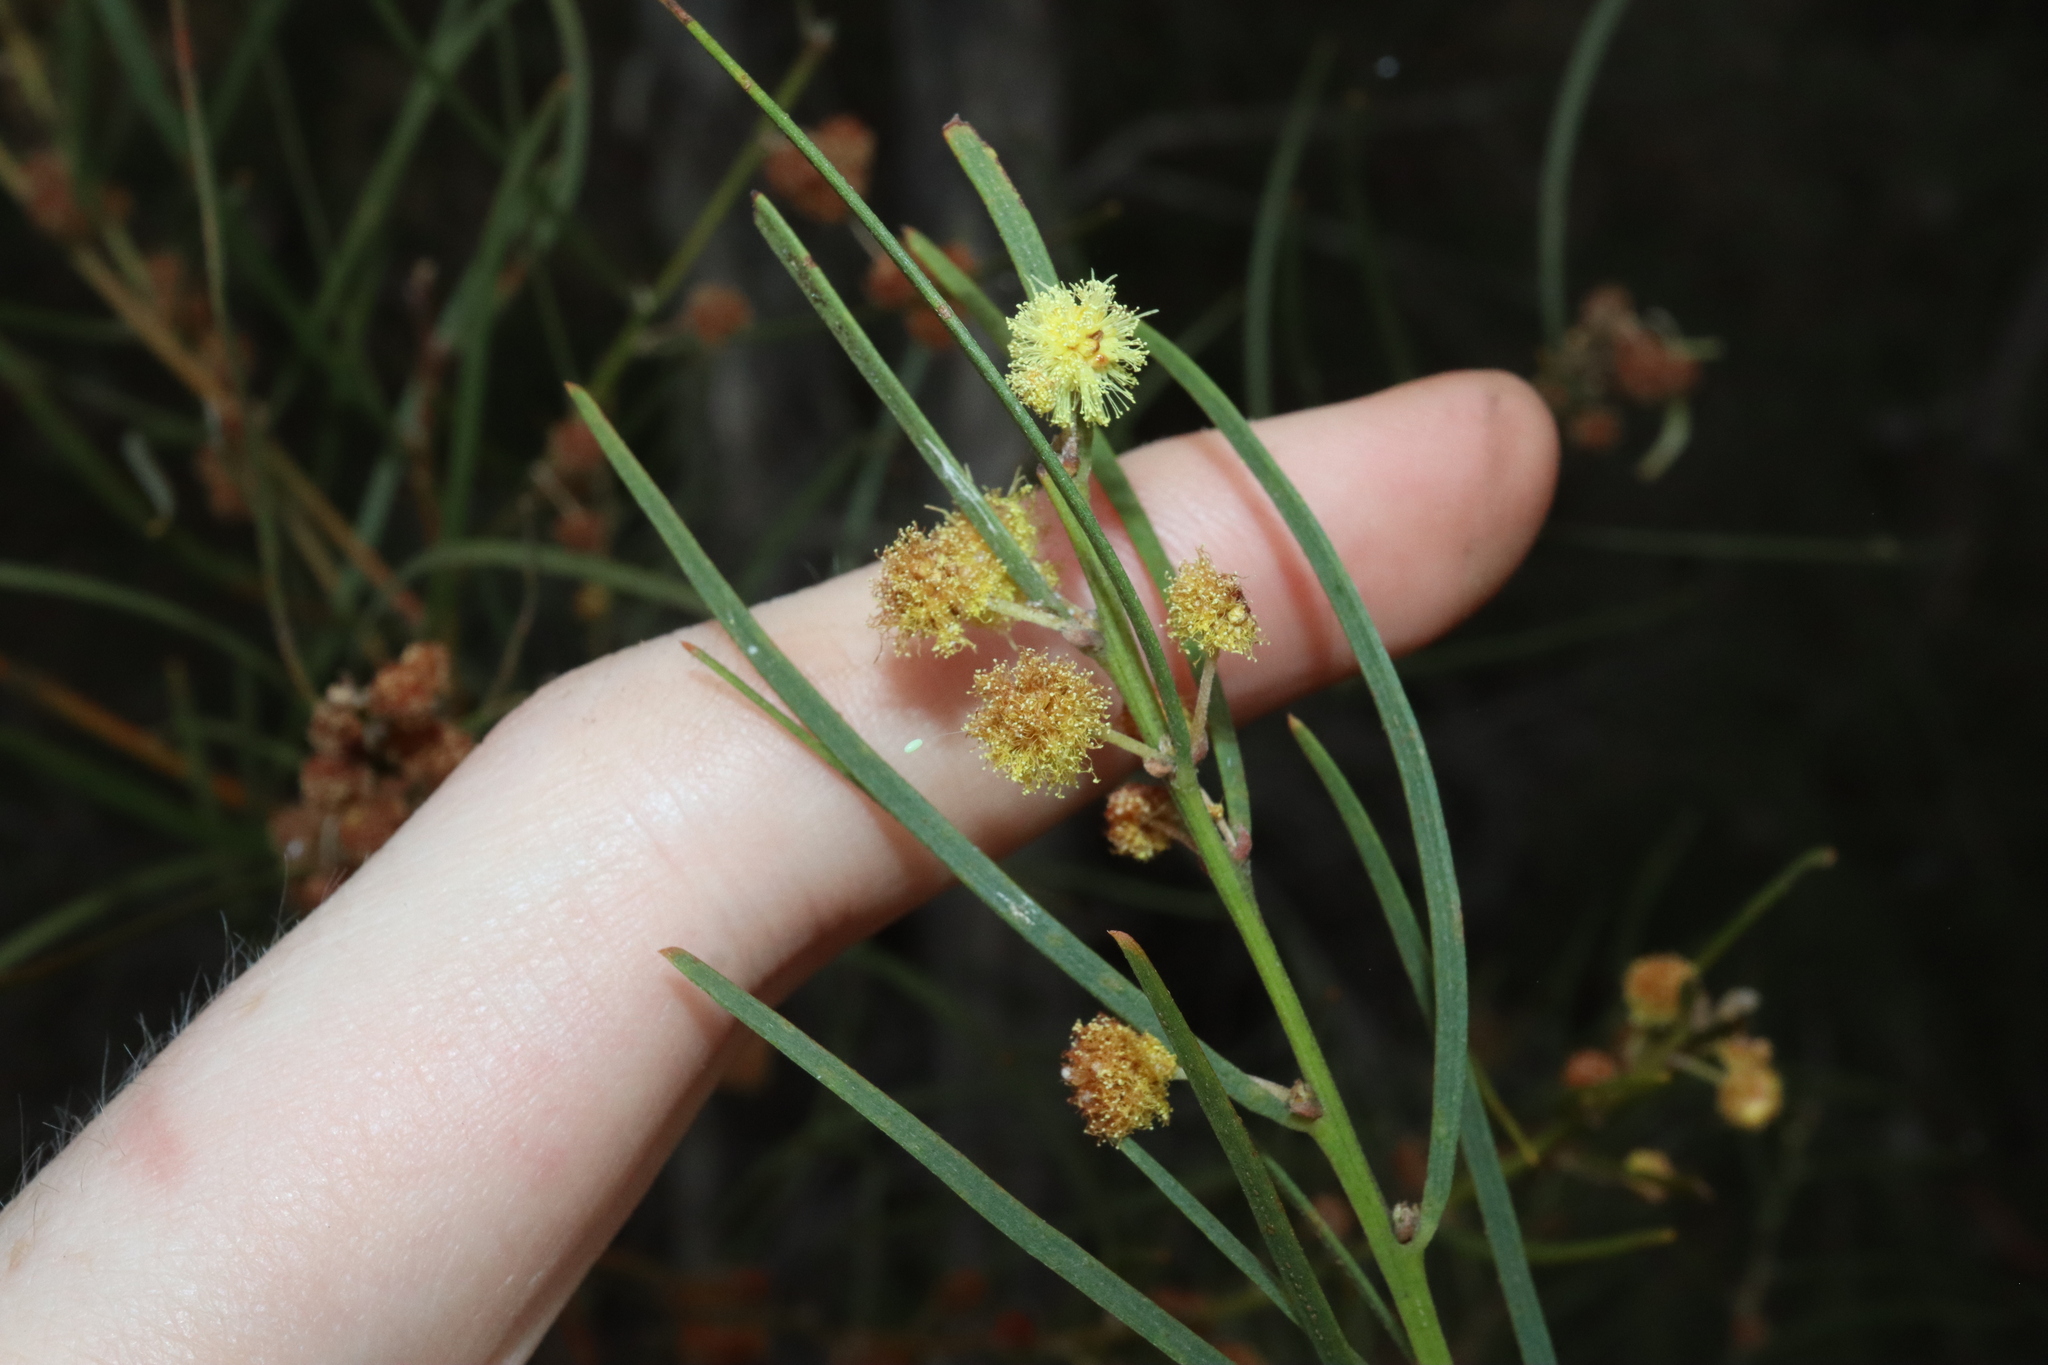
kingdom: Plantae
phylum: Tracheophyta
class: Magnoliopsida
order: Fabales
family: Fabaceae
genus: Acacia
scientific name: Acacia elongata
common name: Swamp wattle
